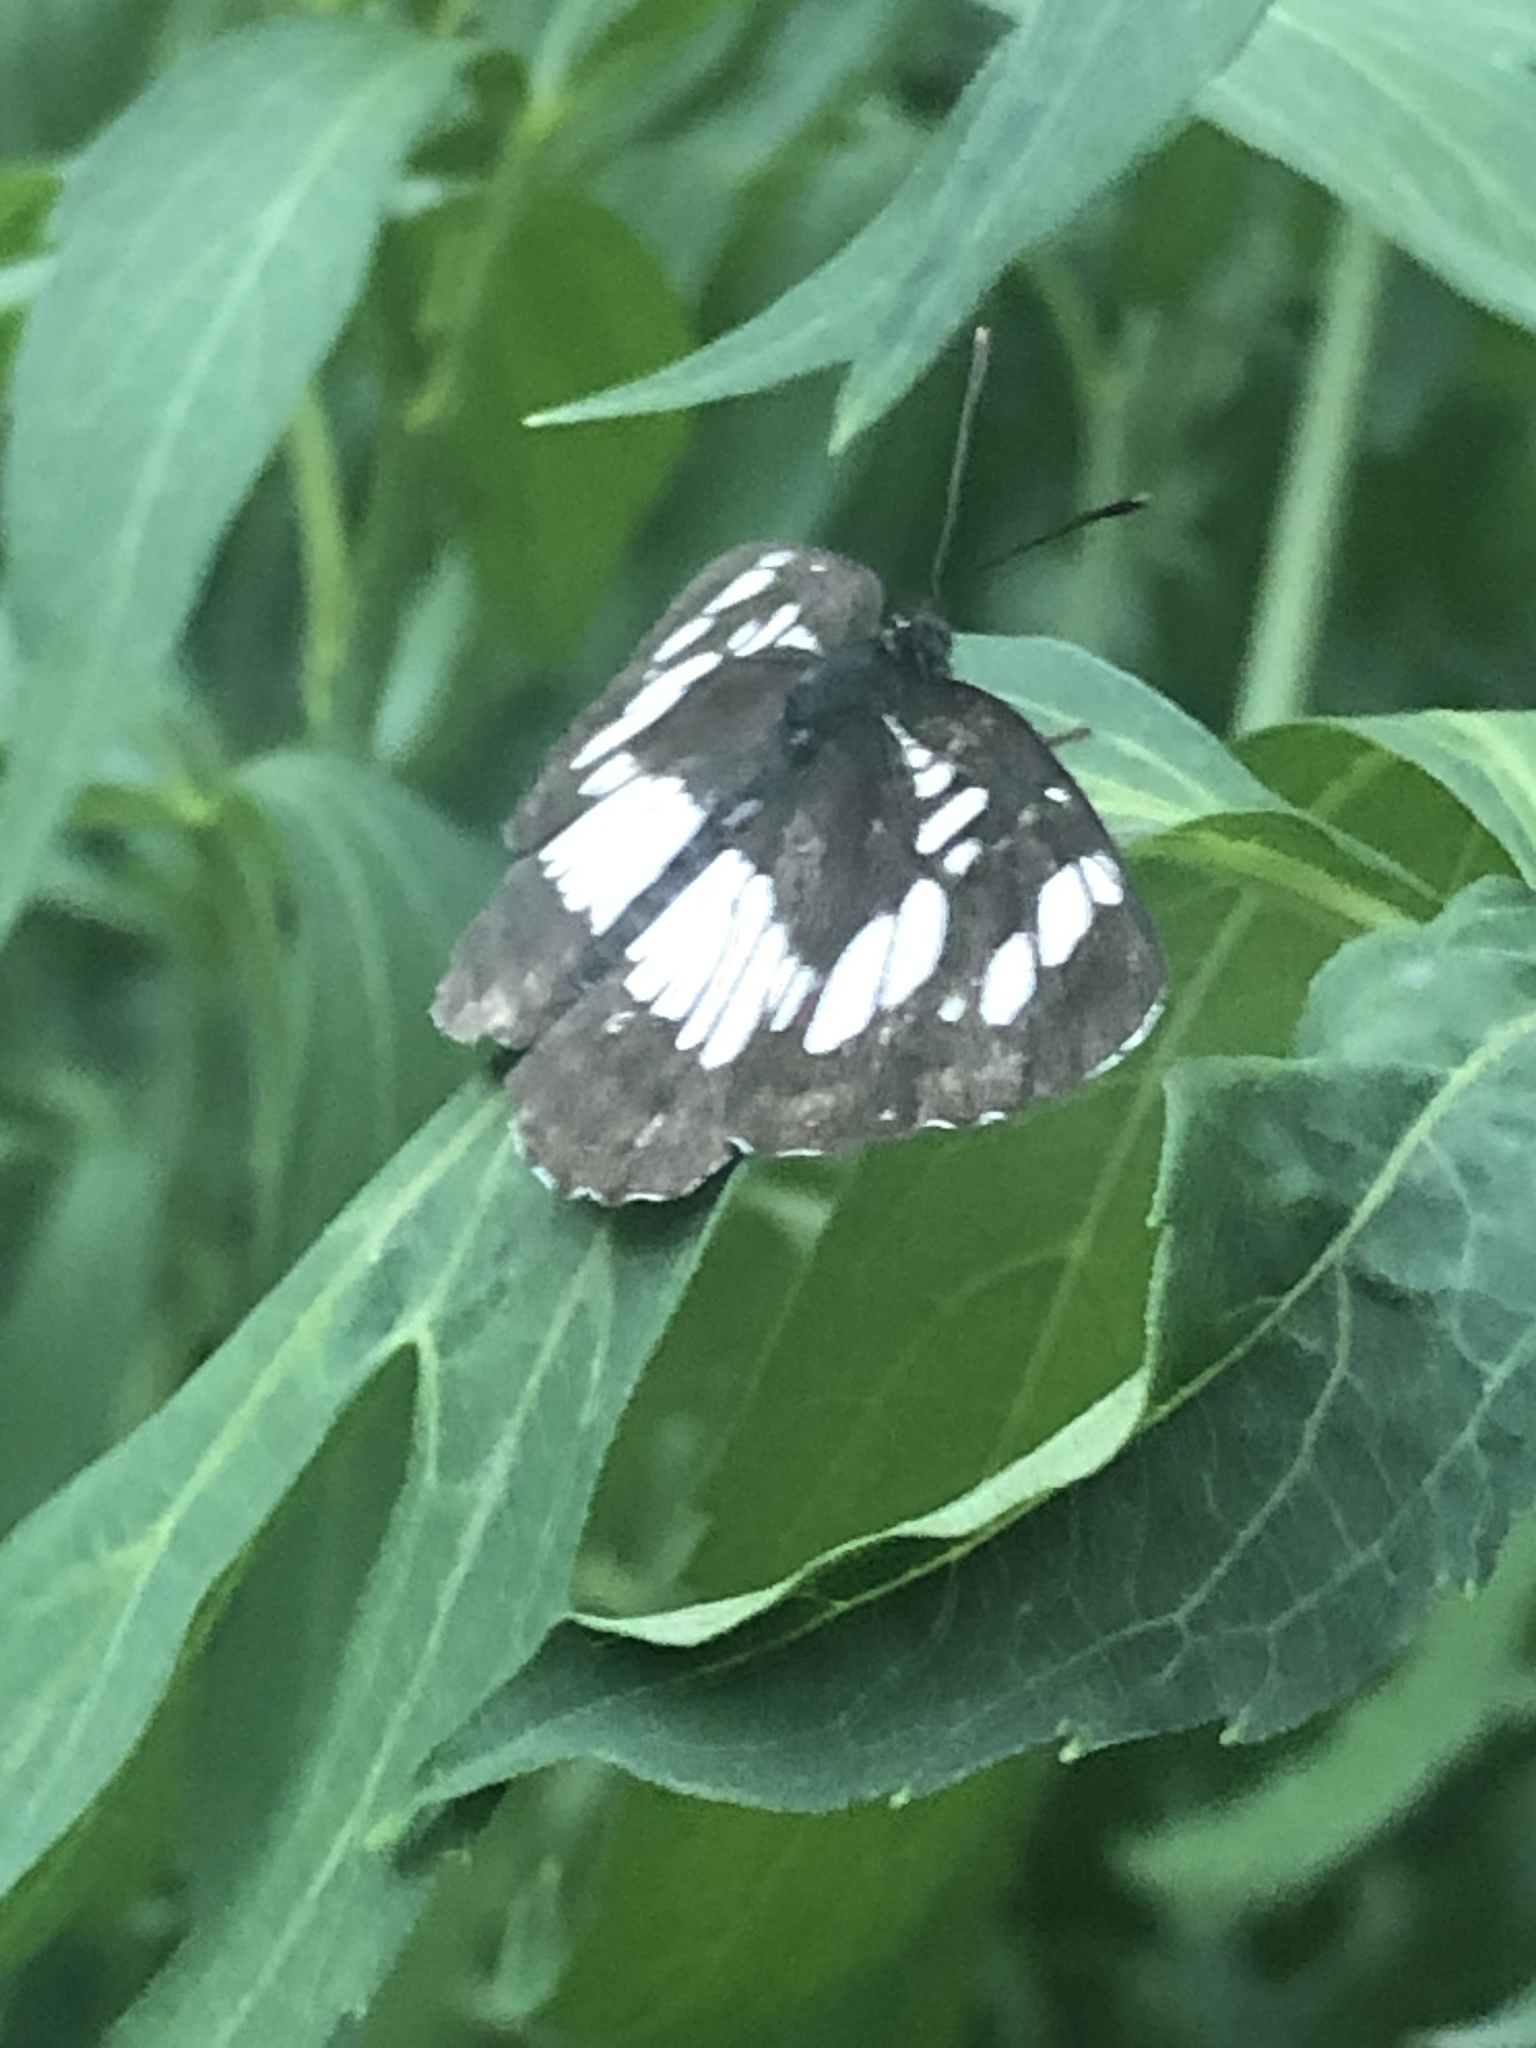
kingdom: Animalia
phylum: Arthropoda
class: Insecta
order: Lepidoptera
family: Nymphalidae
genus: Neptis
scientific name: Neptis rivularis
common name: Hungarian glider
